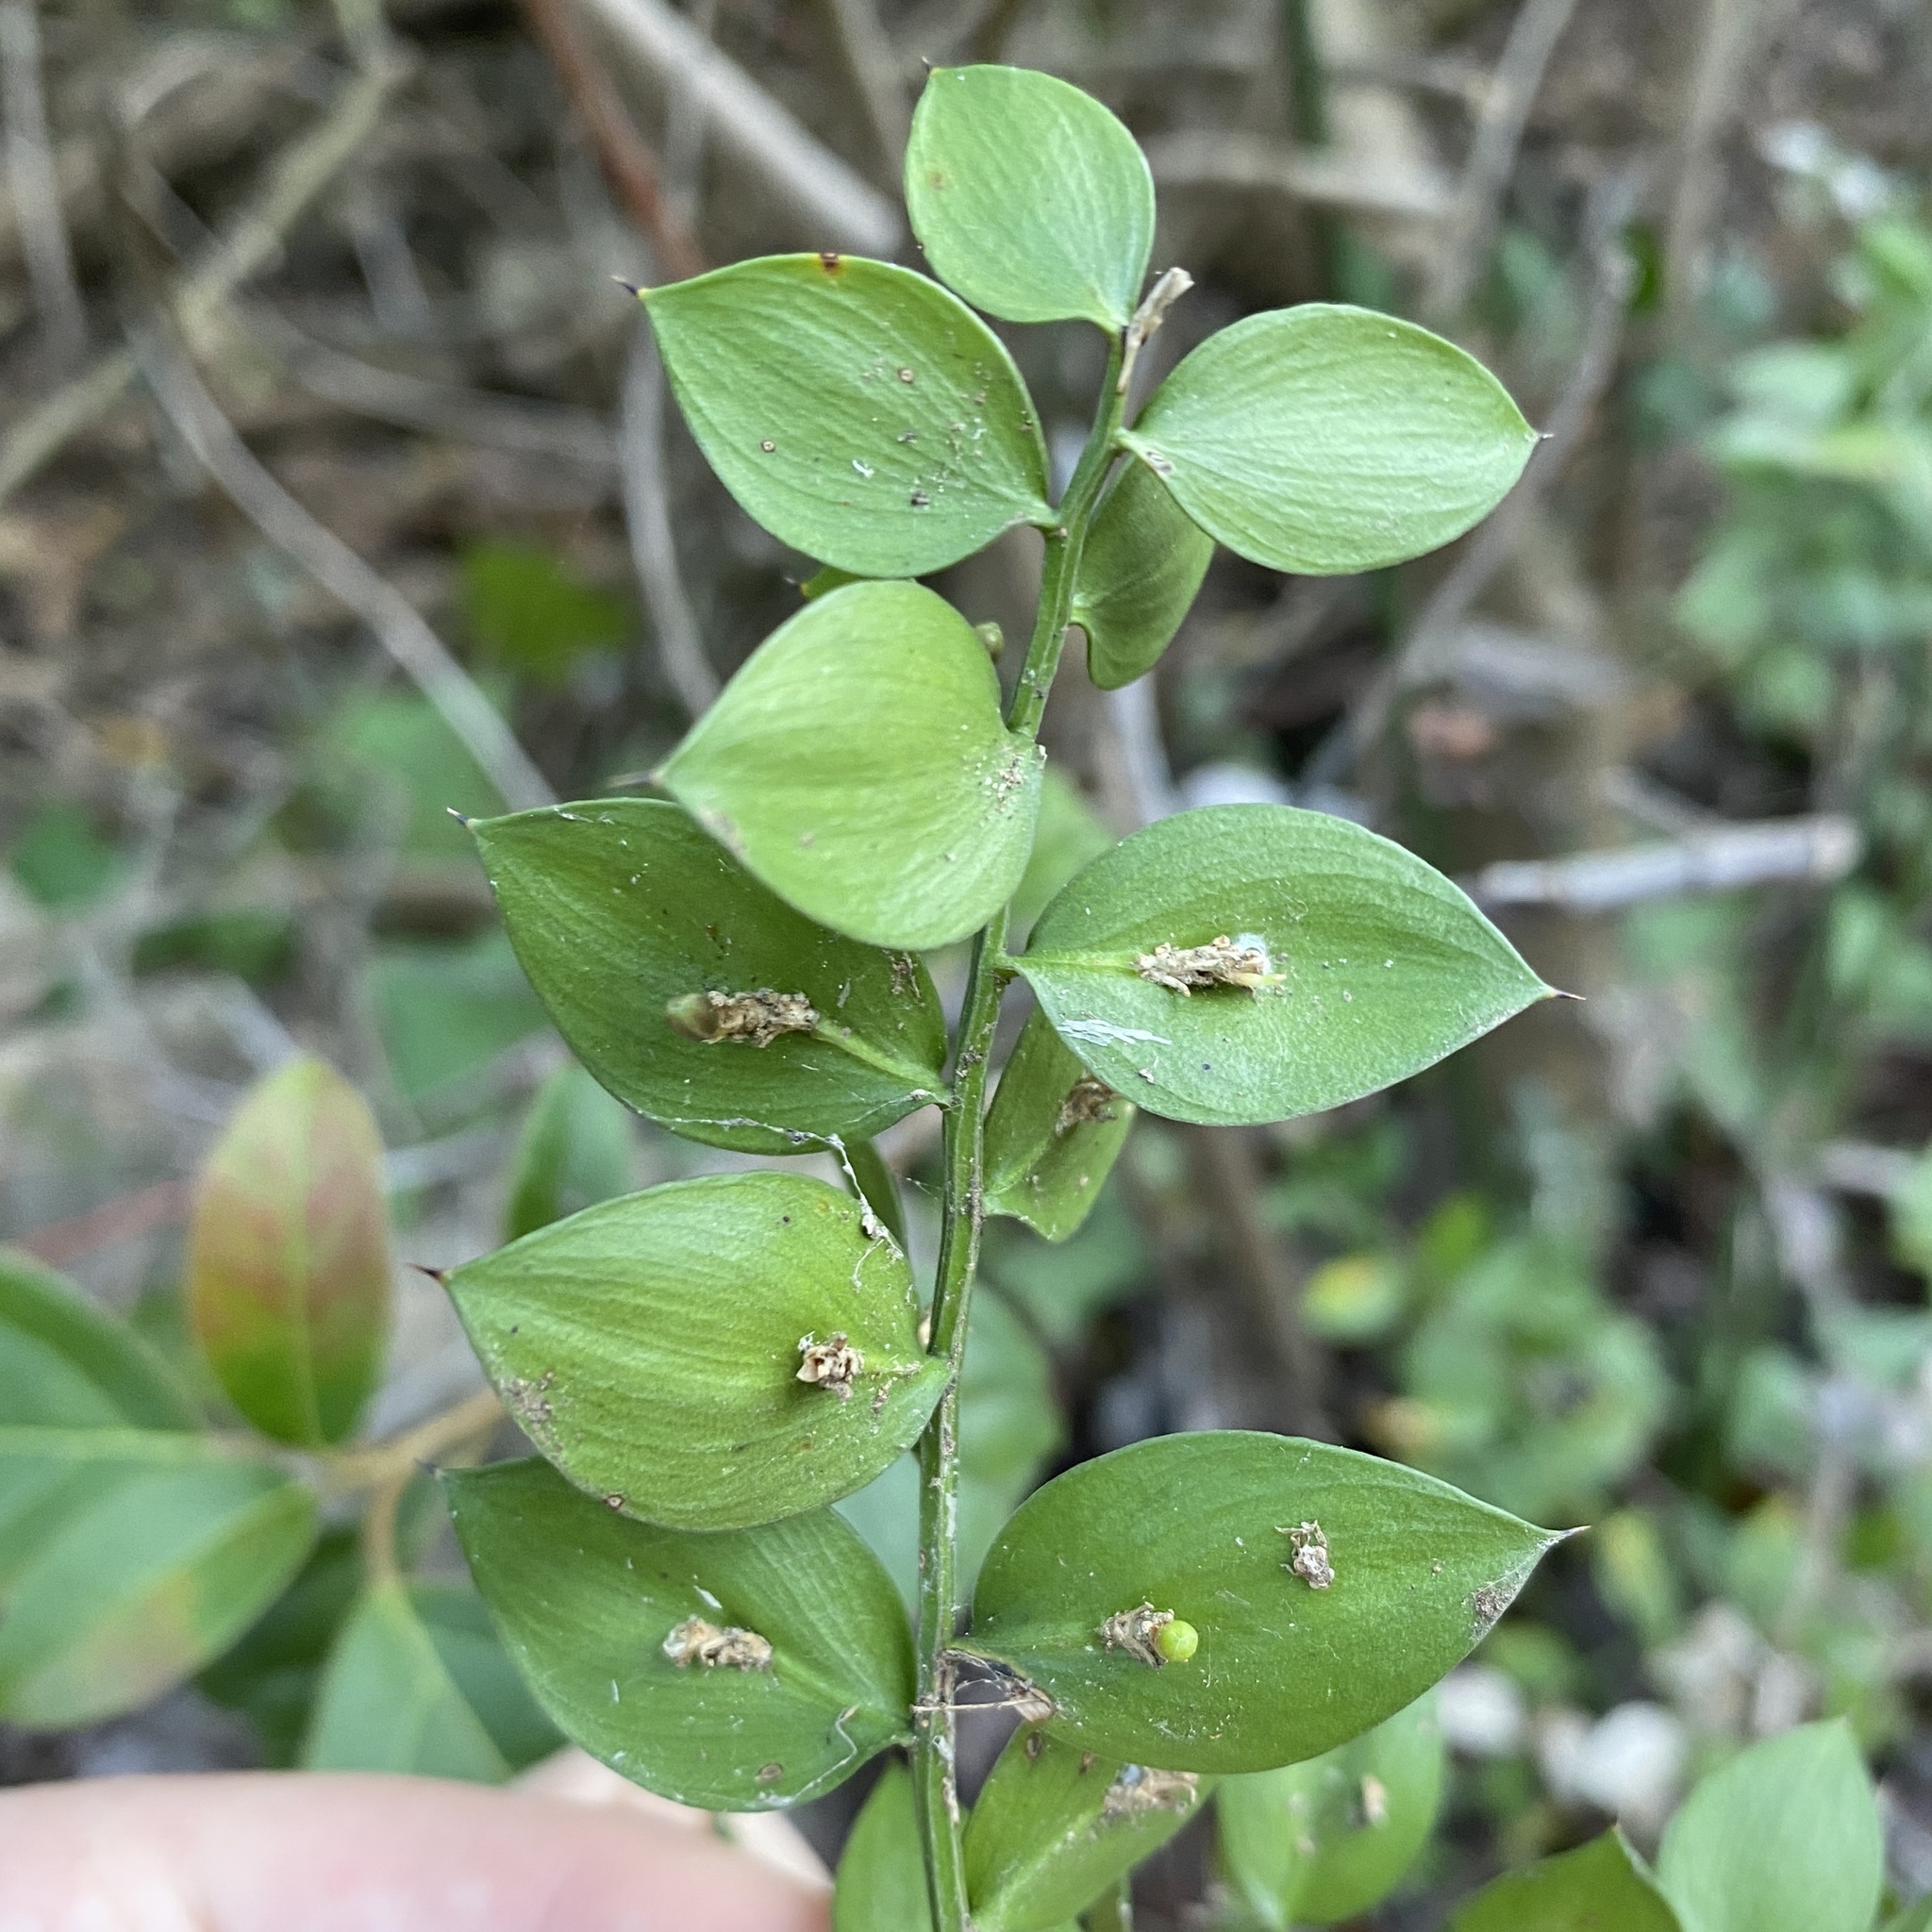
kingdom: Plantae
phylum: Tracheophyta
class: Liliopsida
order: Asparagales
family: Asparagaceae
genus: Ruscus
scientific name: Ruscus aculeatus
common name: Butcher's-broom
